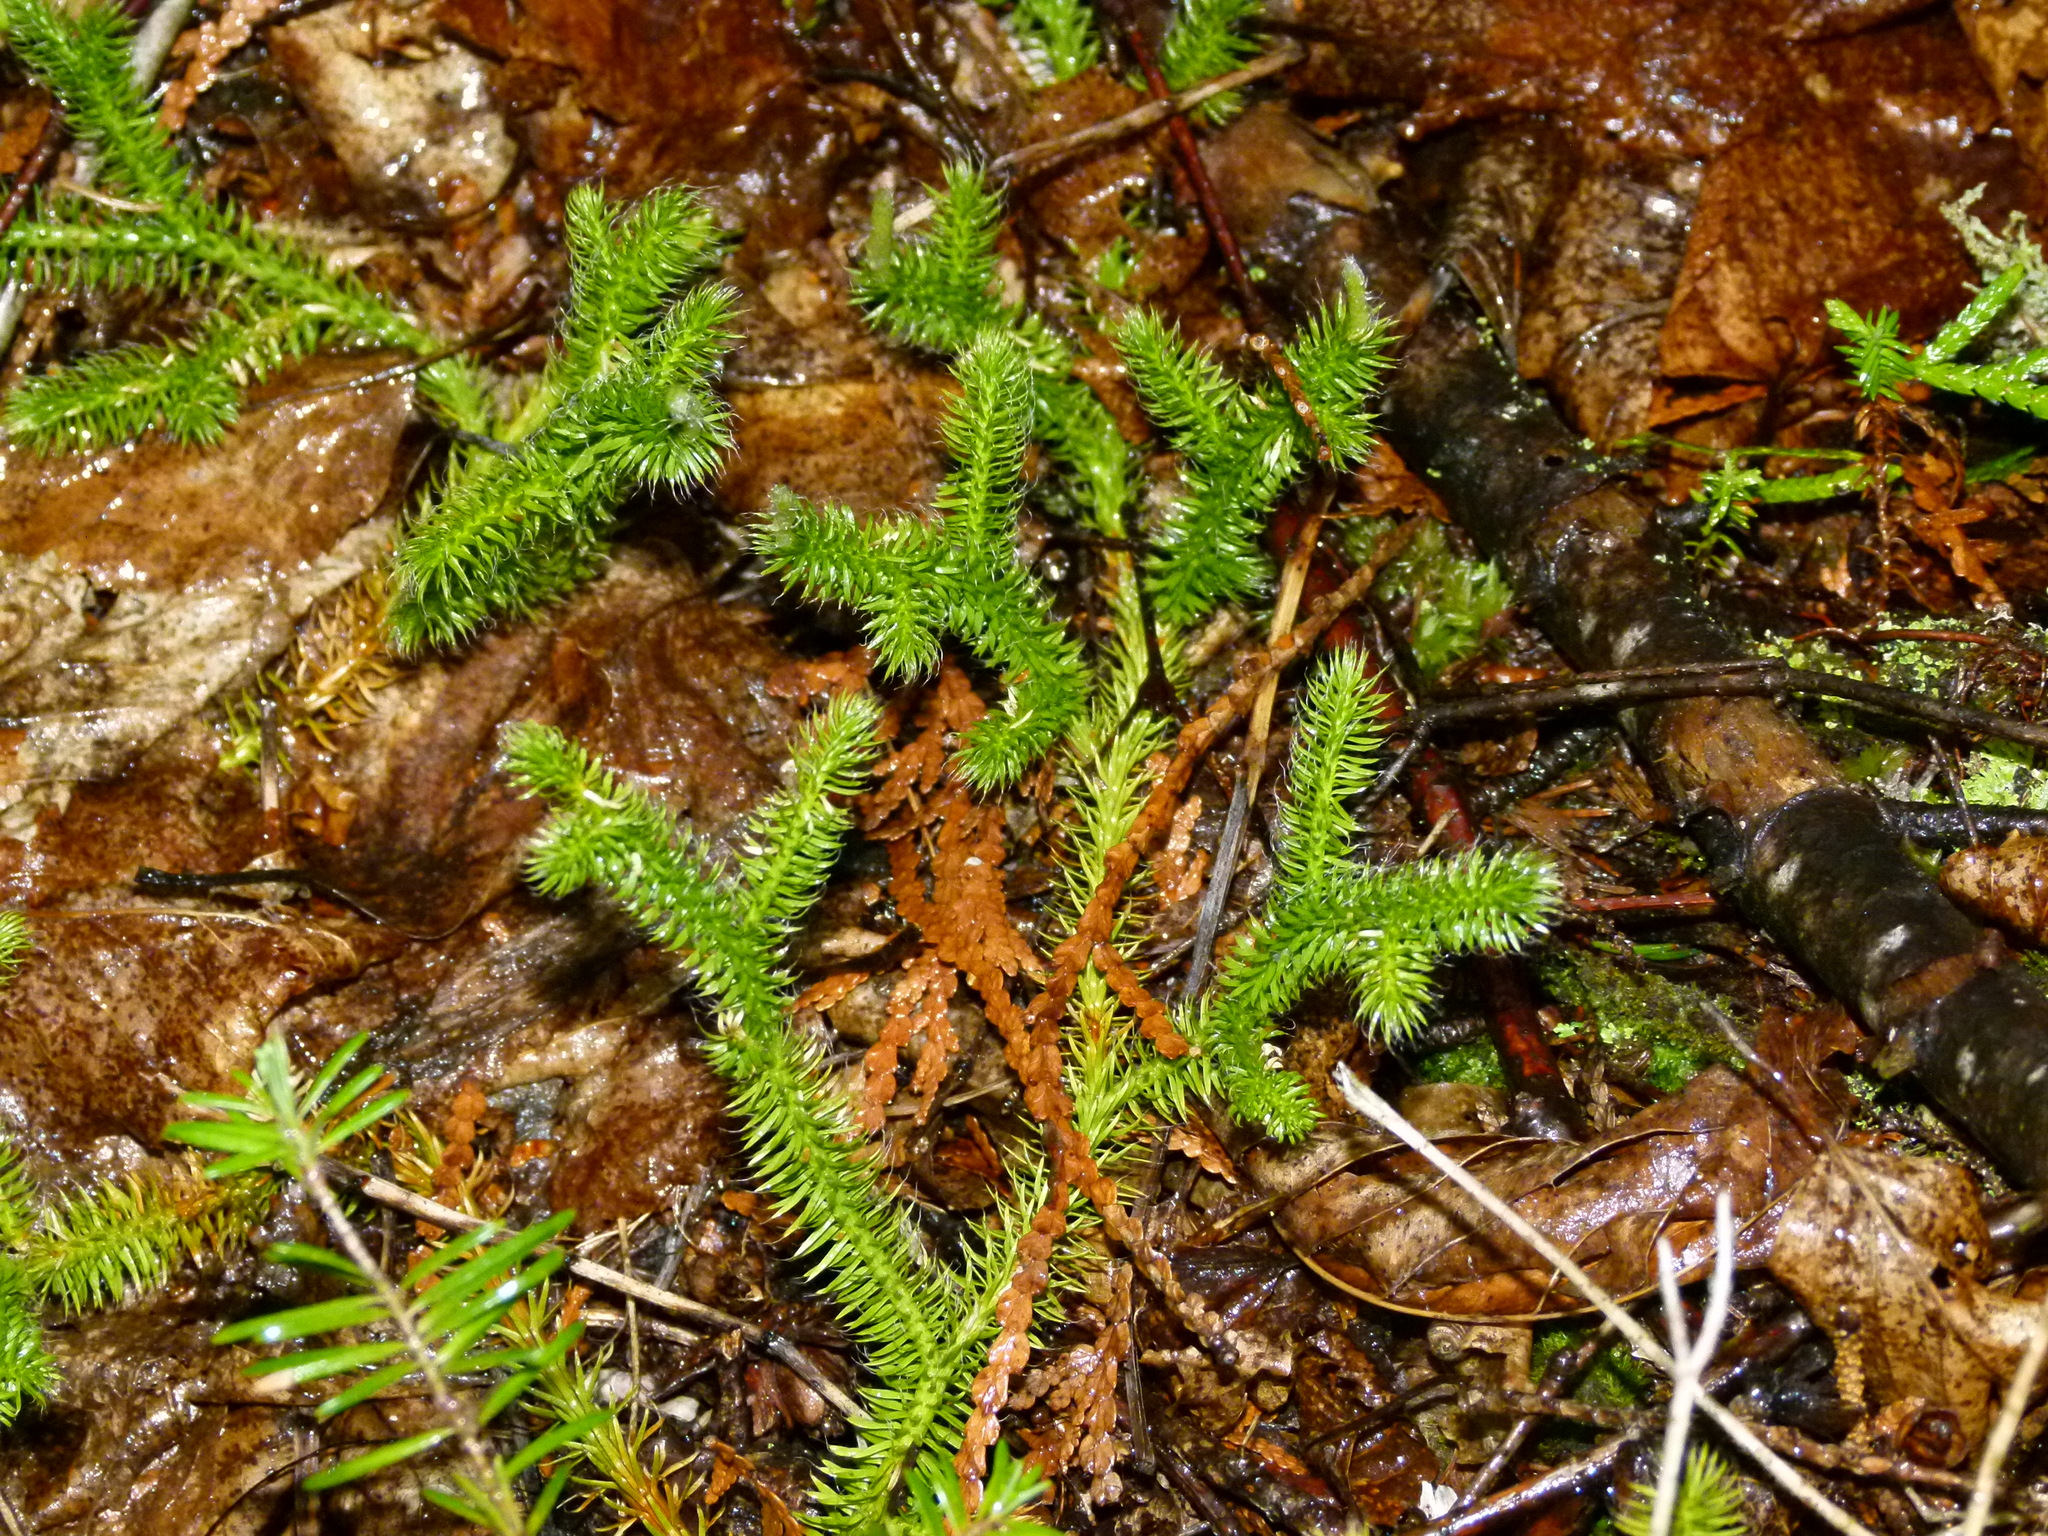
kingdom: Plantae
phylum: Tracheophyta
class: Lycopodiopsida
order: Lycopodiales
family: Lycopodiaceae
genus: Lycopodium
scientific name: Lycopodium clavatum
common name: Stag's-horn clubmoss
